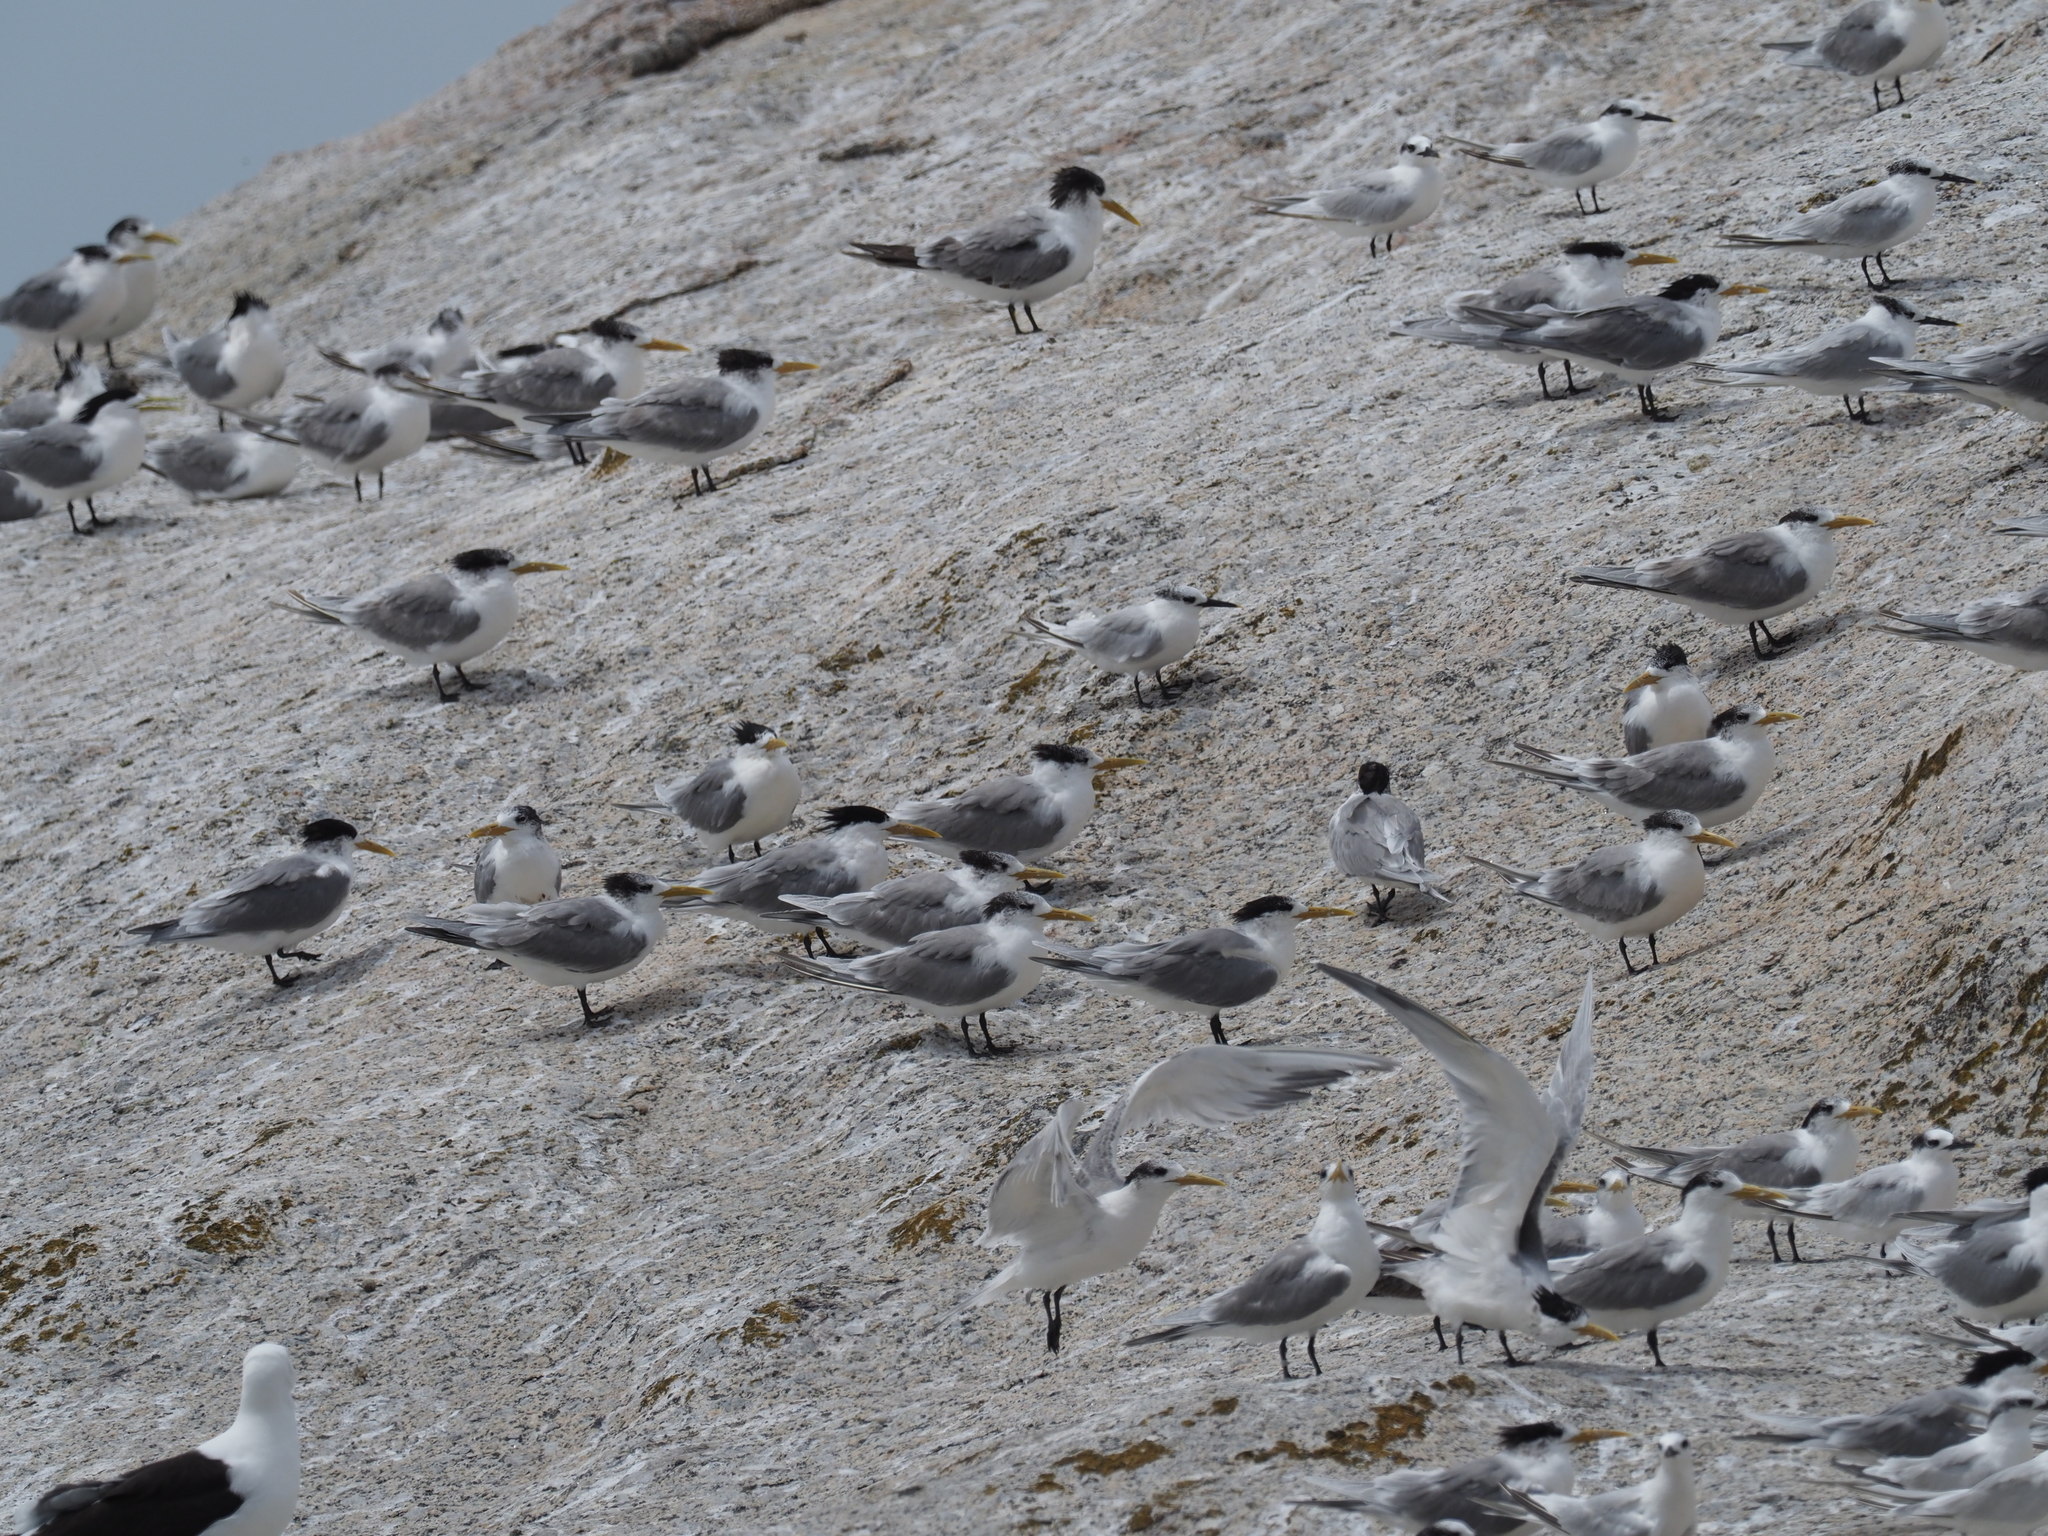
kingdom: Animalia
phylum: Chordata
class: Aves
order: Charadriiformes
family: Laridae
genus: Thalasseus
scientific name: Thalasseus sandvicensis
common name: Sandwich tern
